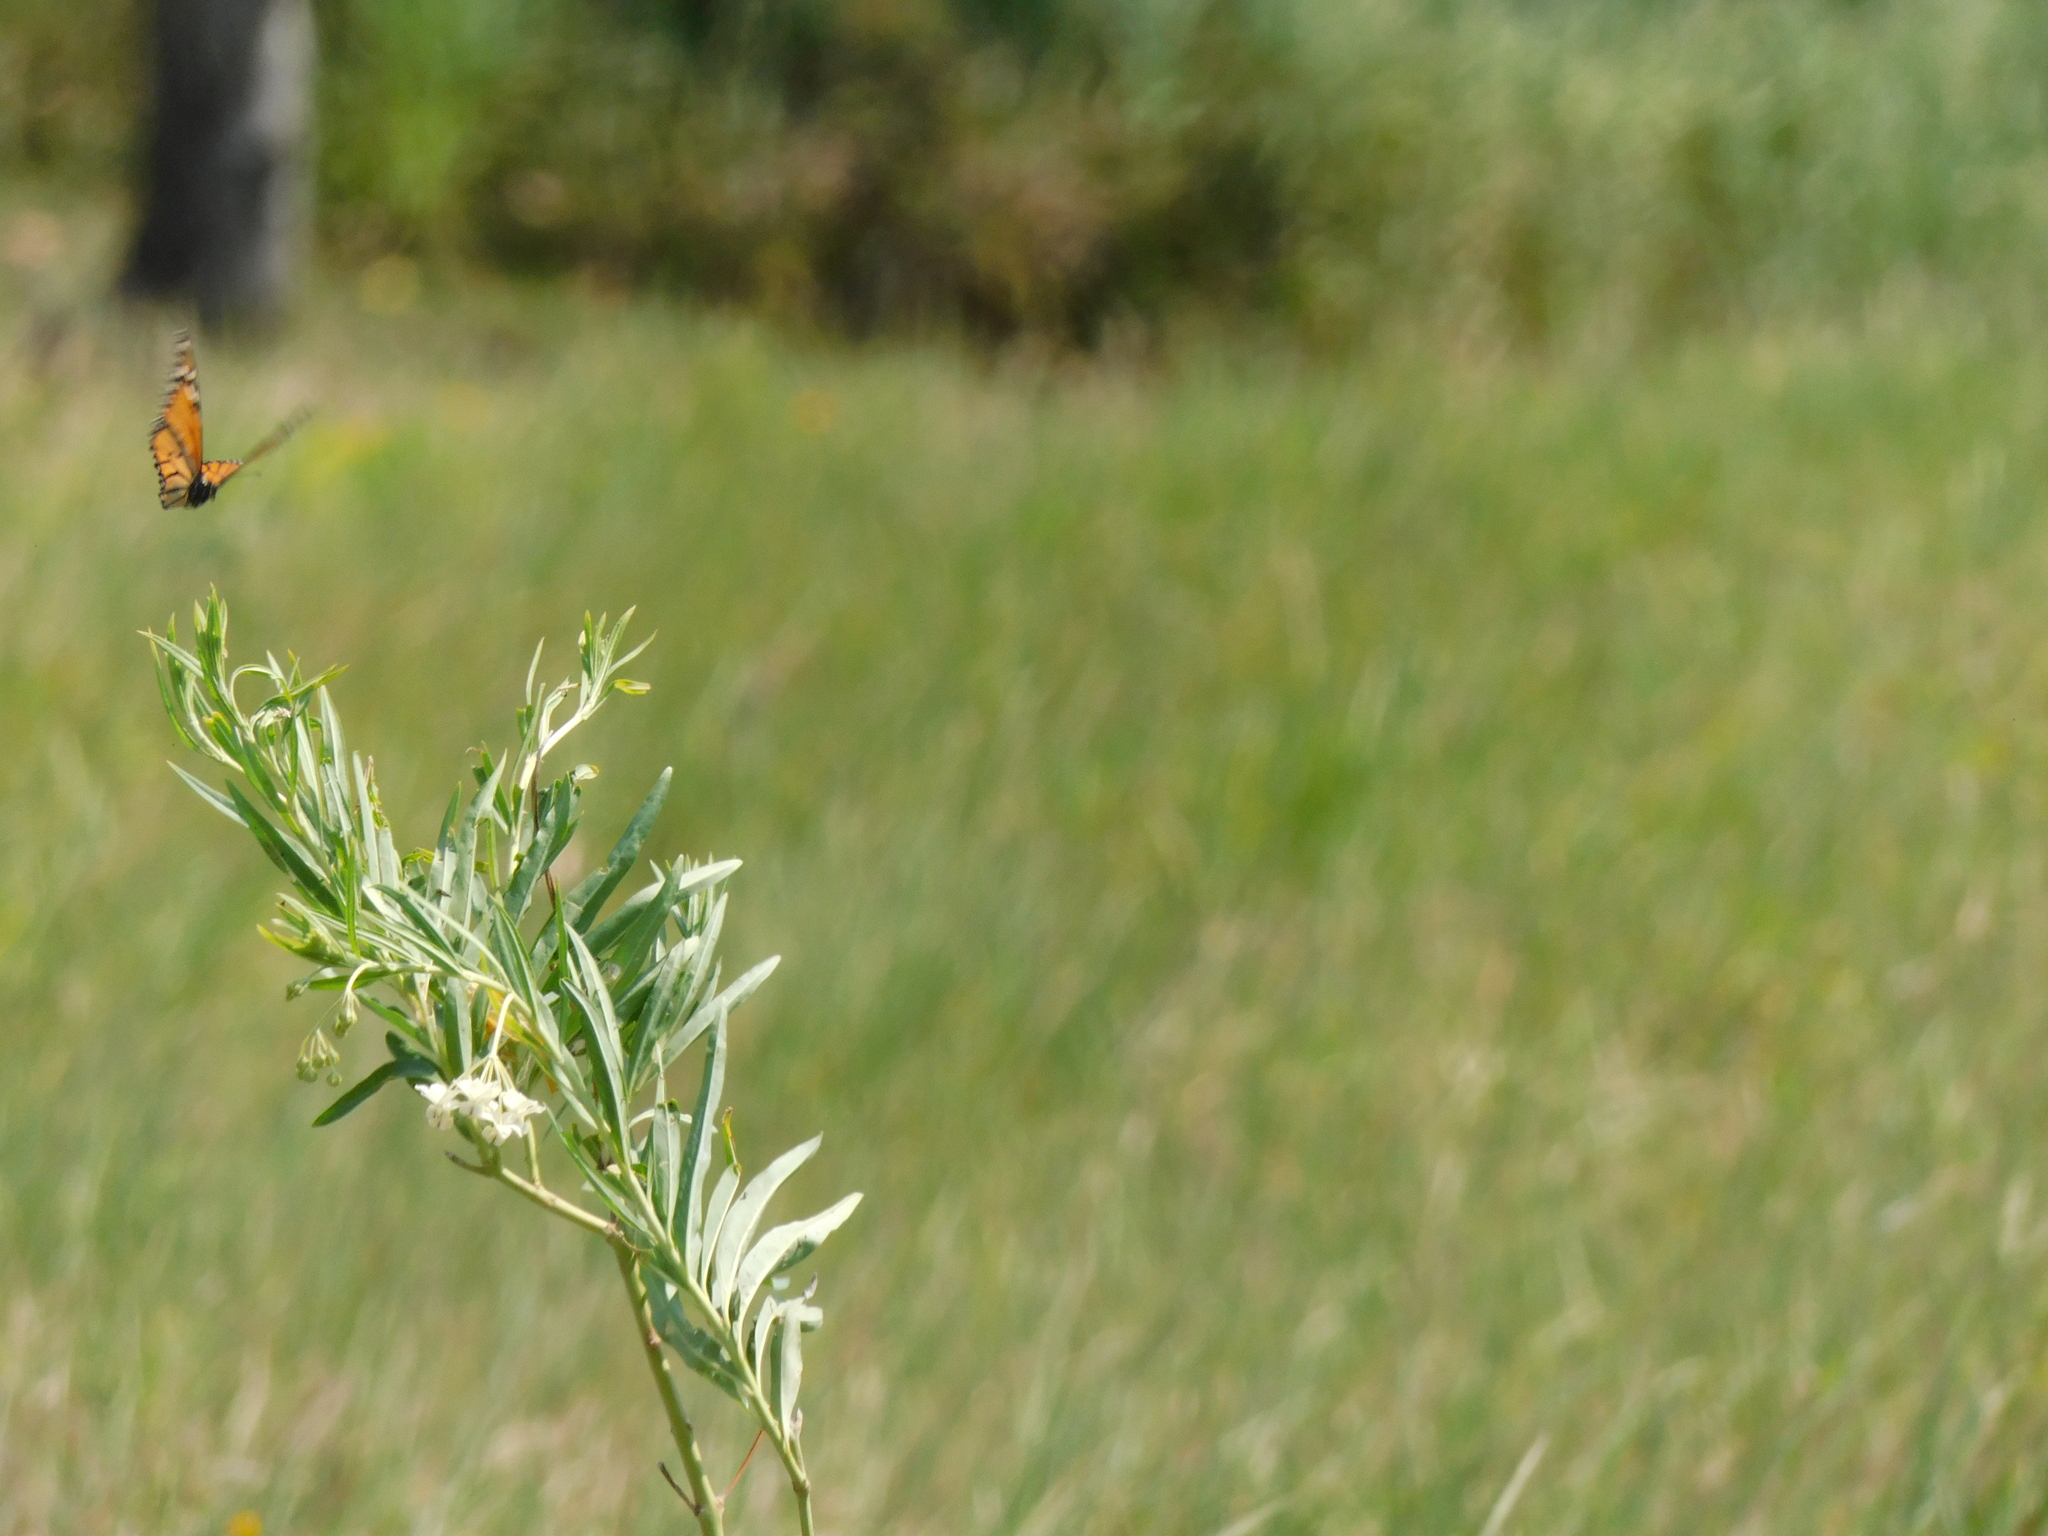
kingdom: Animalia
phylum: Arthropoda
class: Insecta
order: Lepidoptera
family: Nymphalidae
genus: Danaus
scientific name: Danaus plexippus
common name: Monarch
